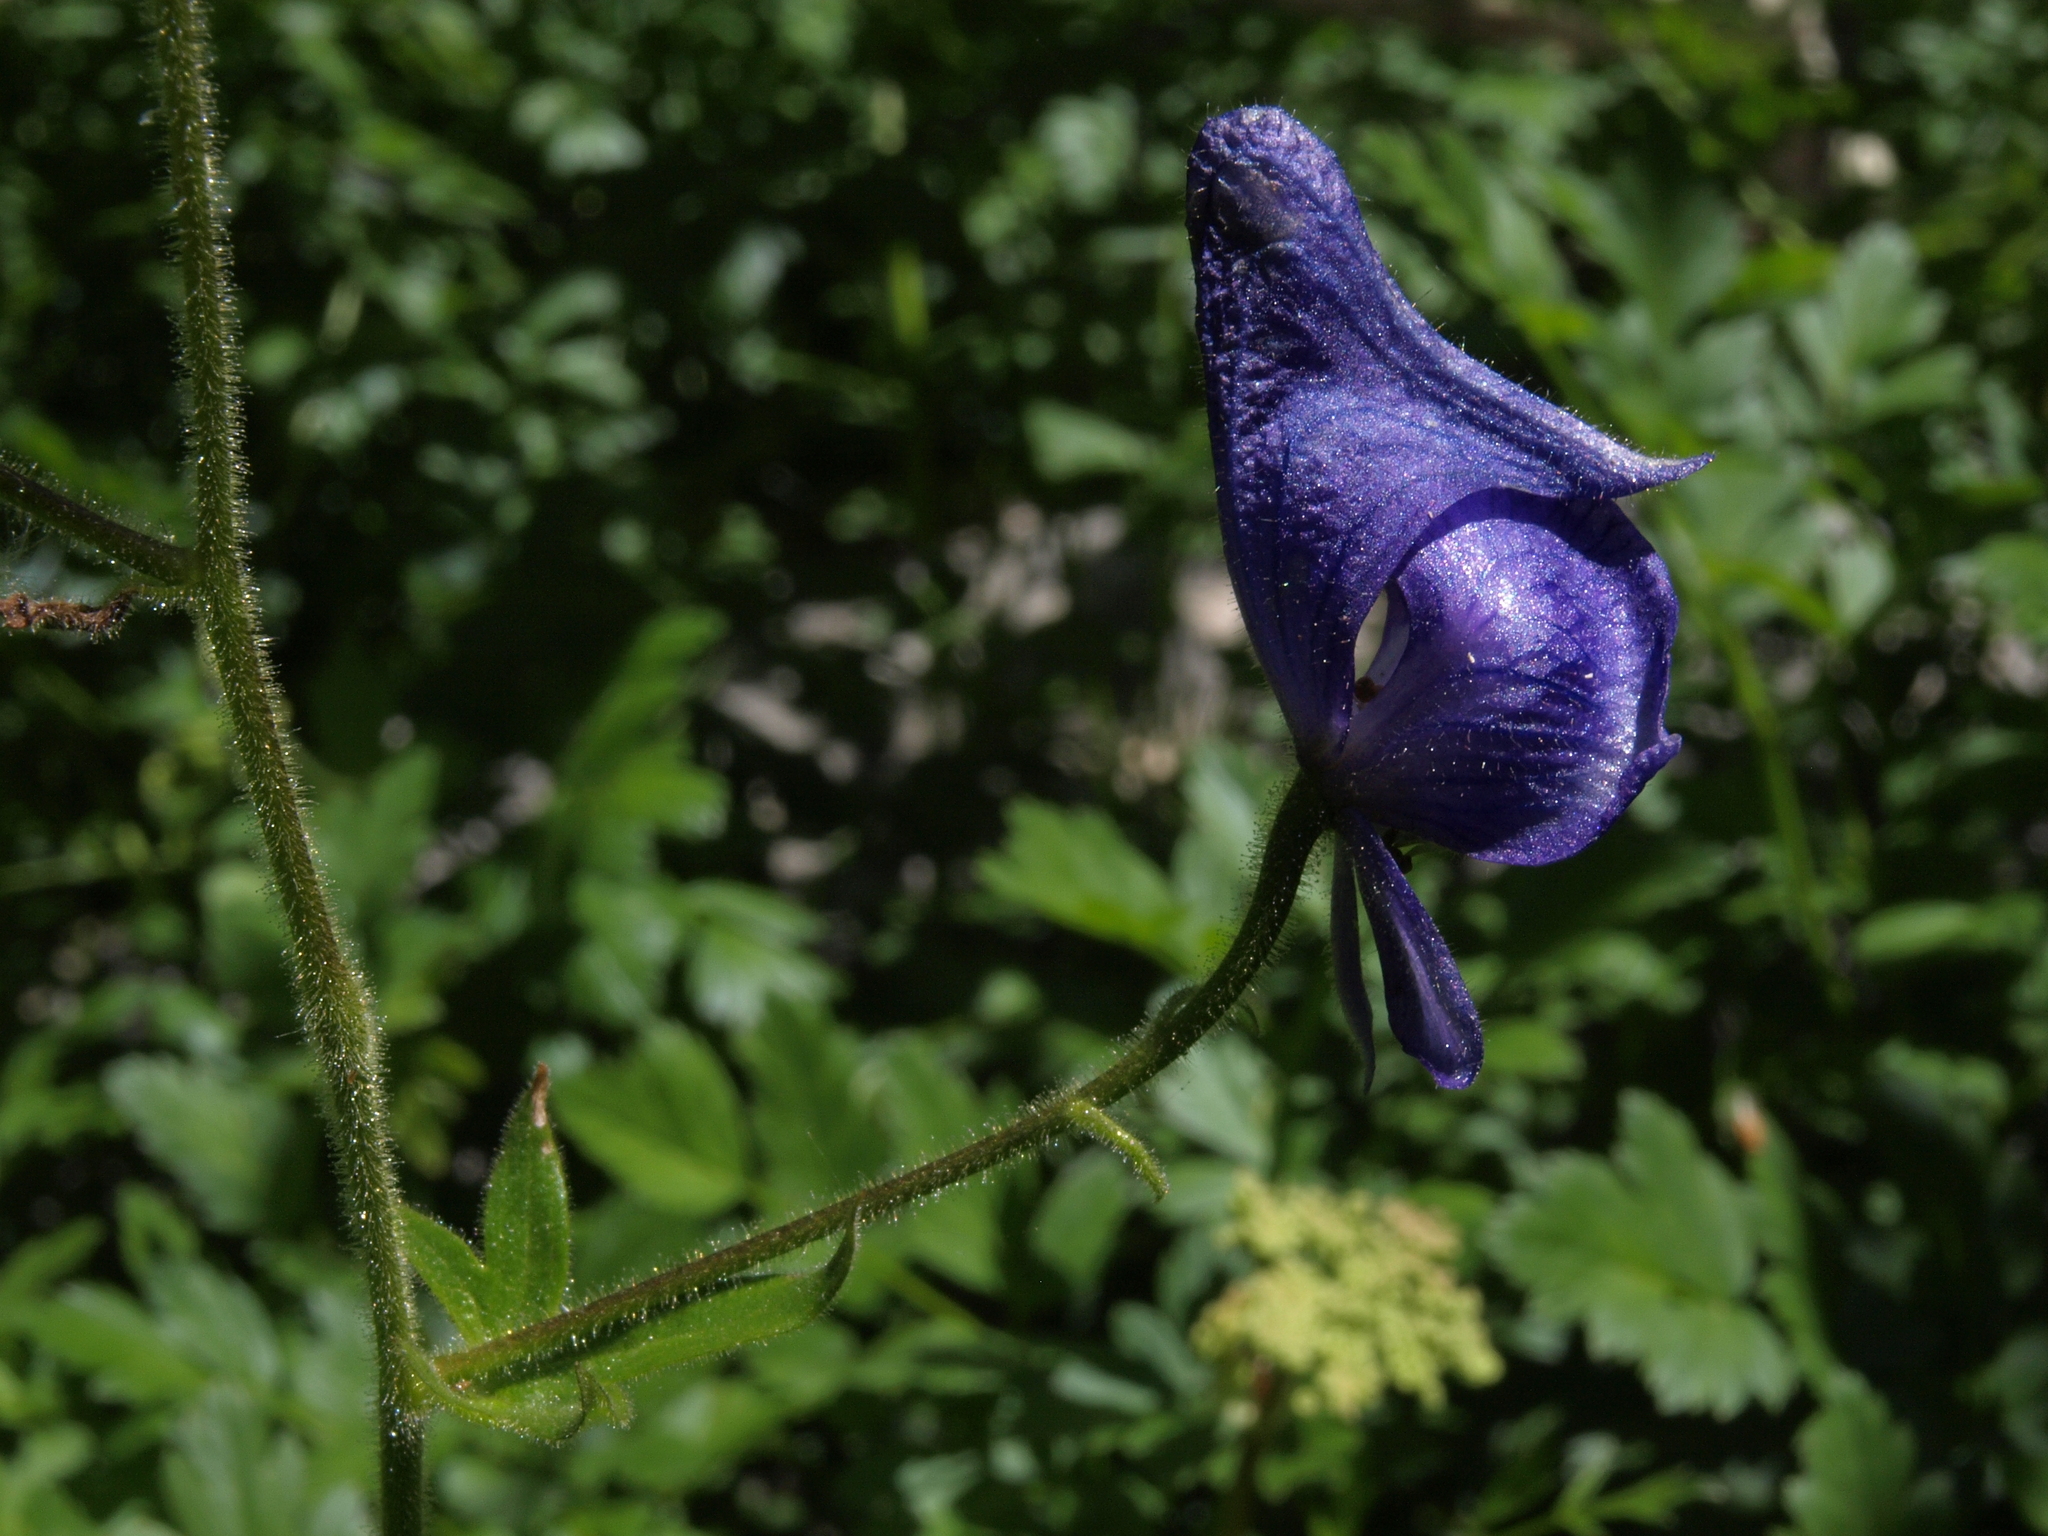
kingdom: Plantae
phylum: Tracheophyta
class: Magnoliopsida
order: Ranunculales
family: Ranunculaceae
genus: Aconitum
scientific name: Aconitum columbianum
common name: Columbia aconite
